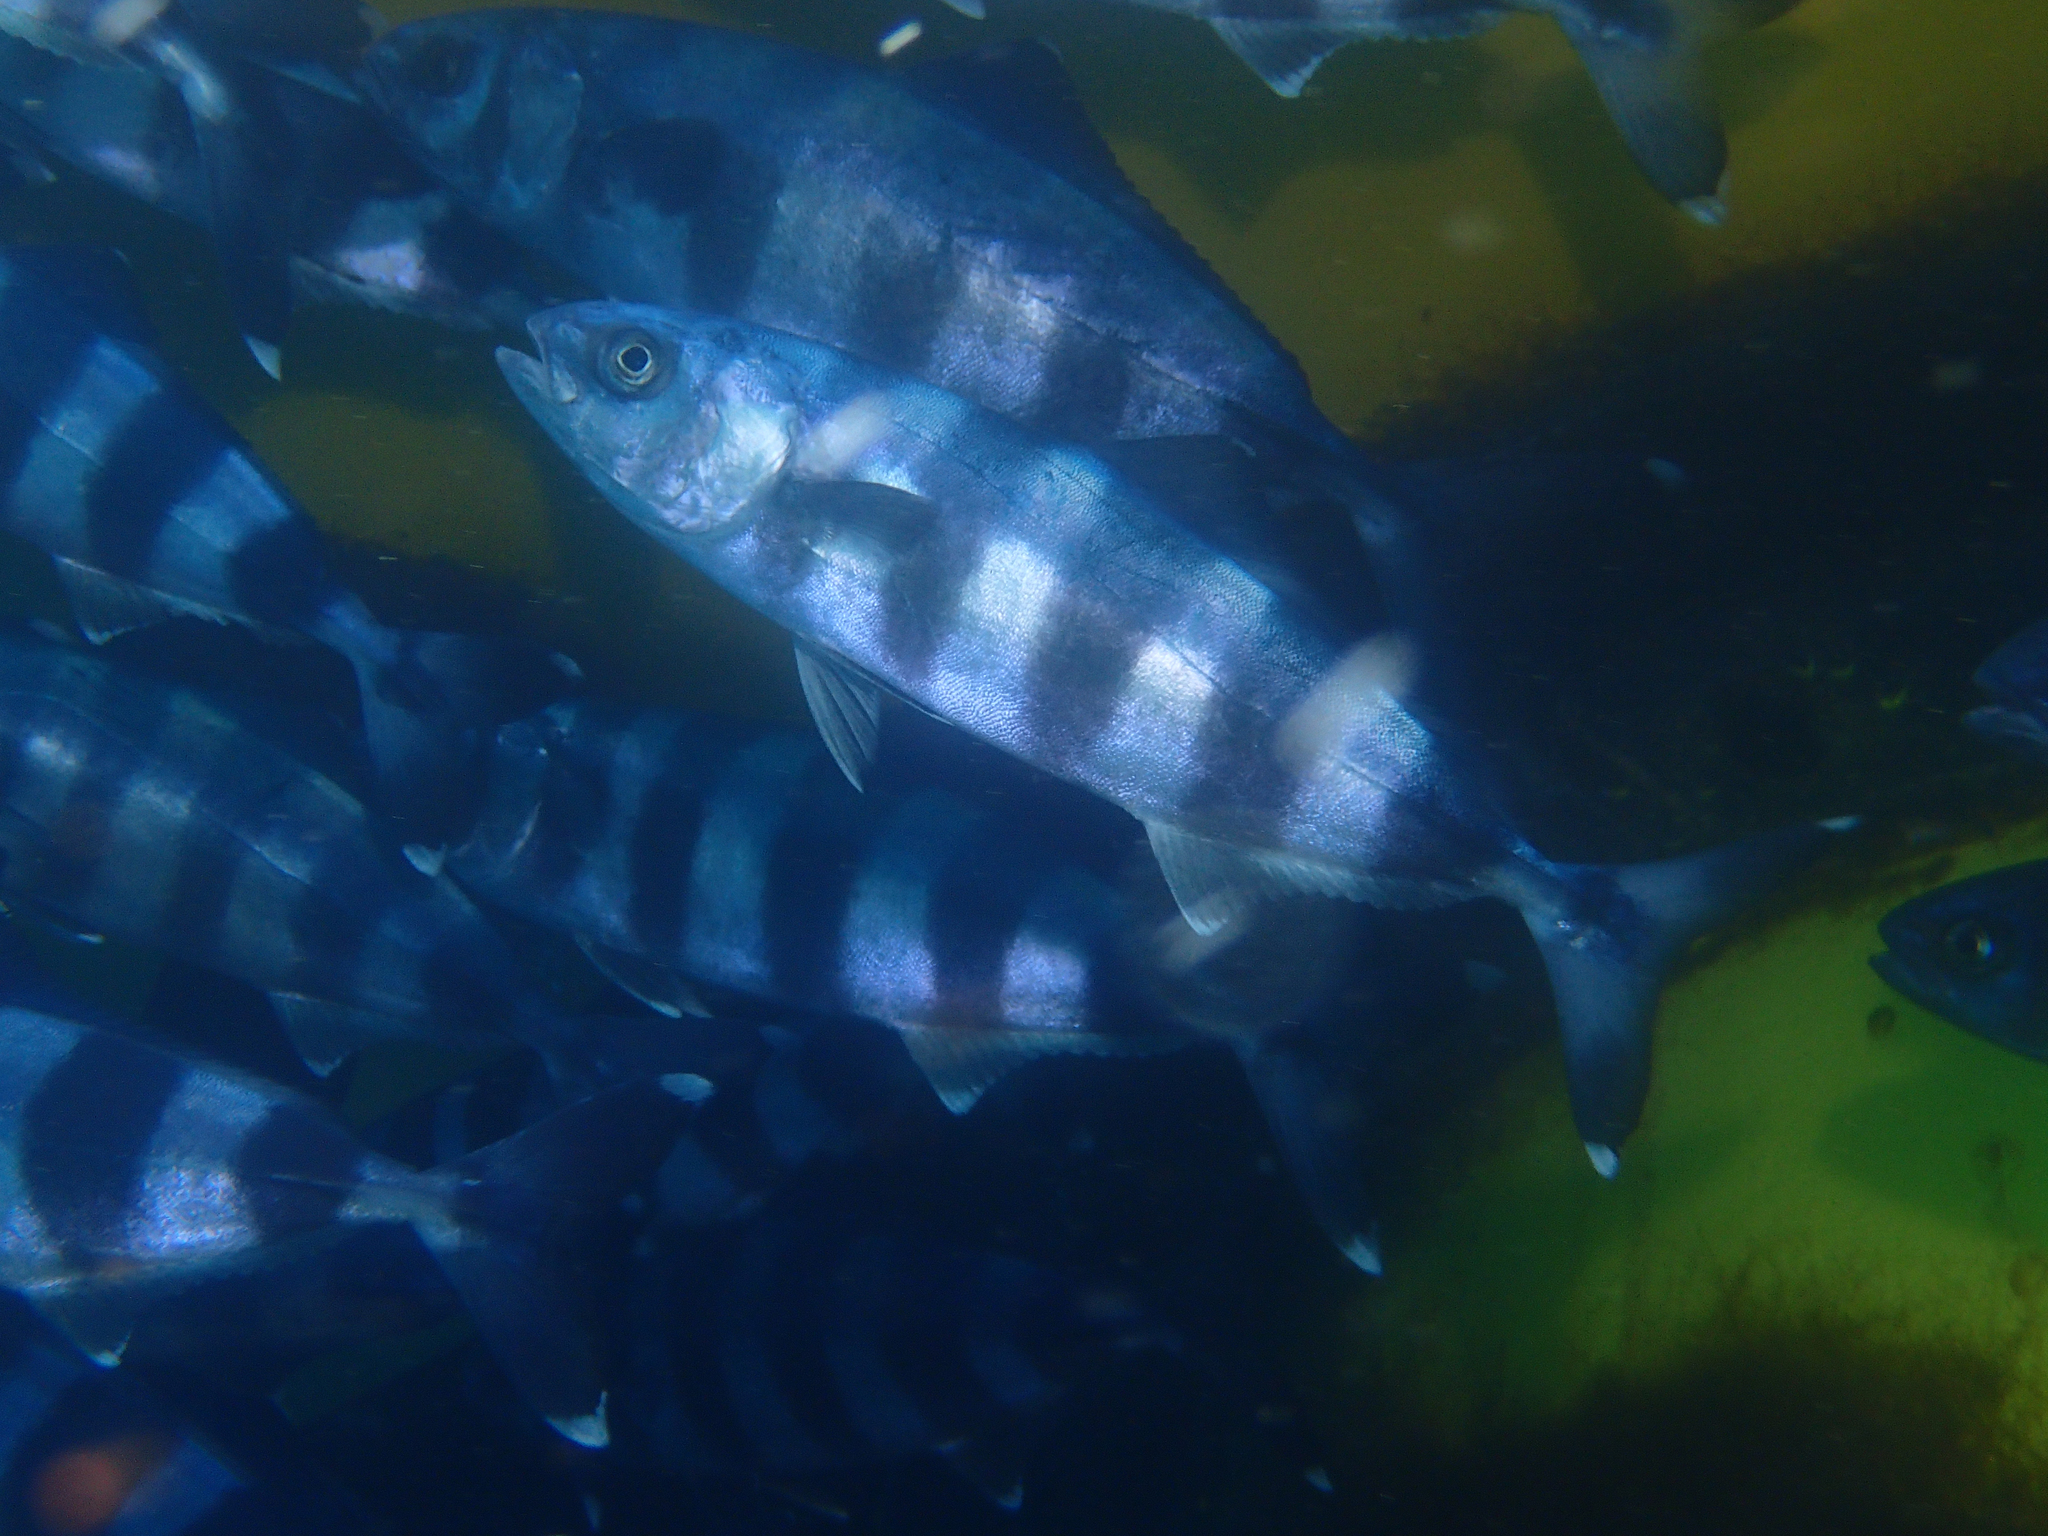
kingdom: Animalia
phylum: Chordata
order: Perciformes
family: Carangidae
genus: Naucrates
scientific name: Naucrates ductor
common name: Pilotfish
